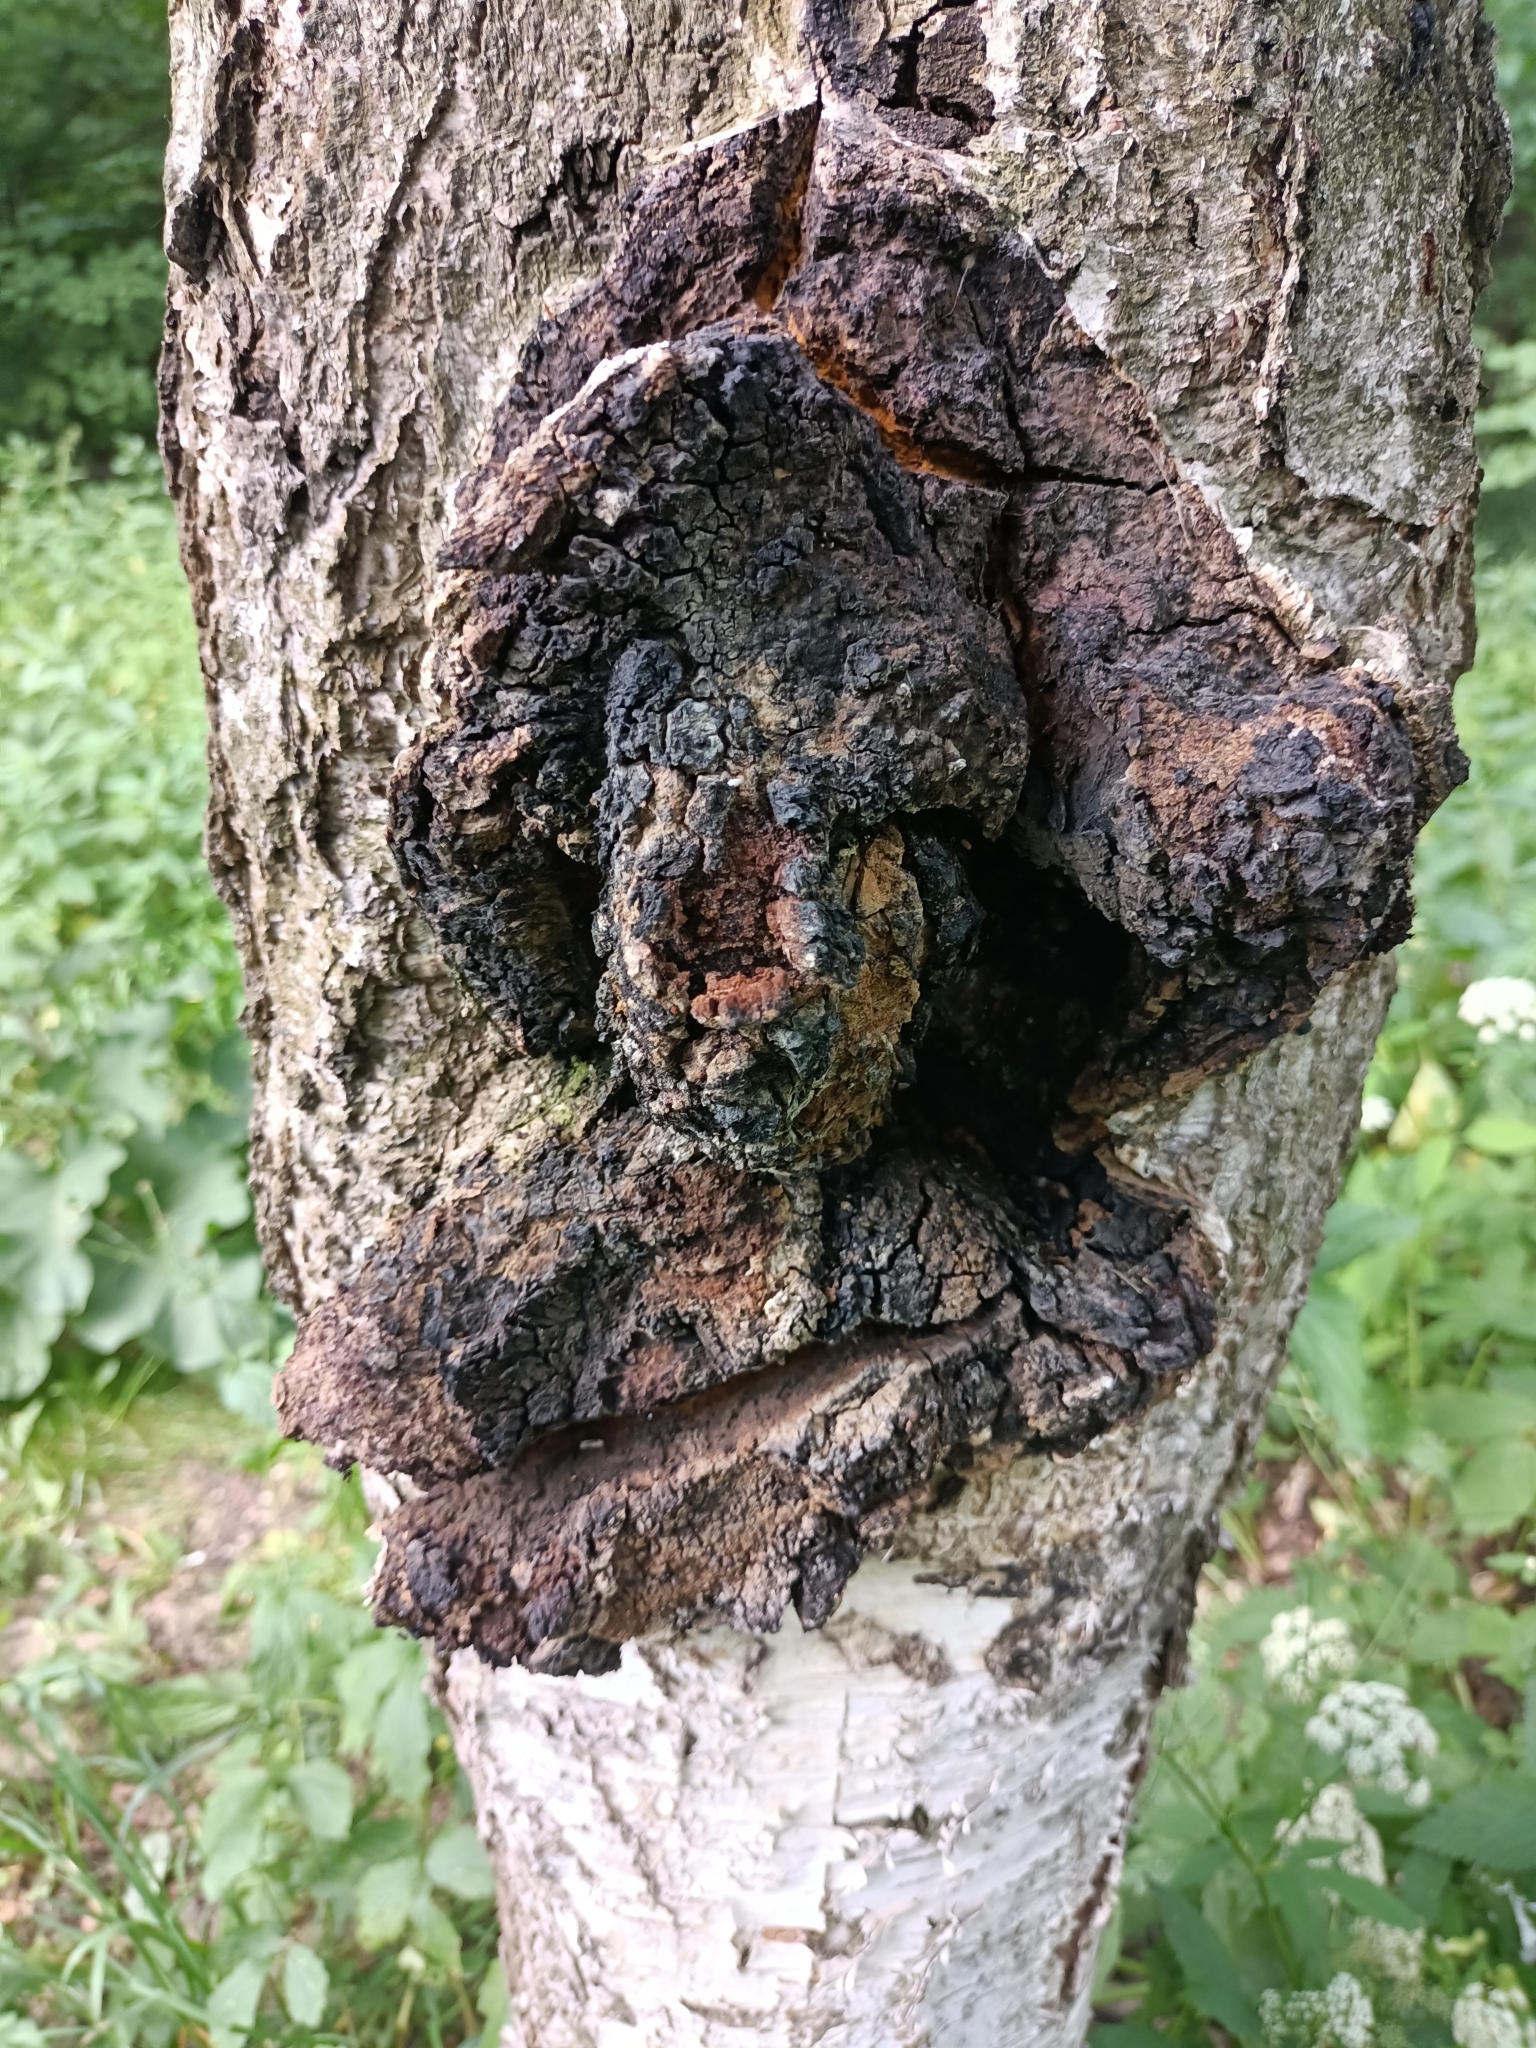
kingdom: Fungi
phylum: Basidiomycota
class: Agaricomycetes
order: Hymenochaetales
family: Hymenochaetaceae
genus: Inonotus
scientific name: Inonotus obliquus
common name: Chaga
